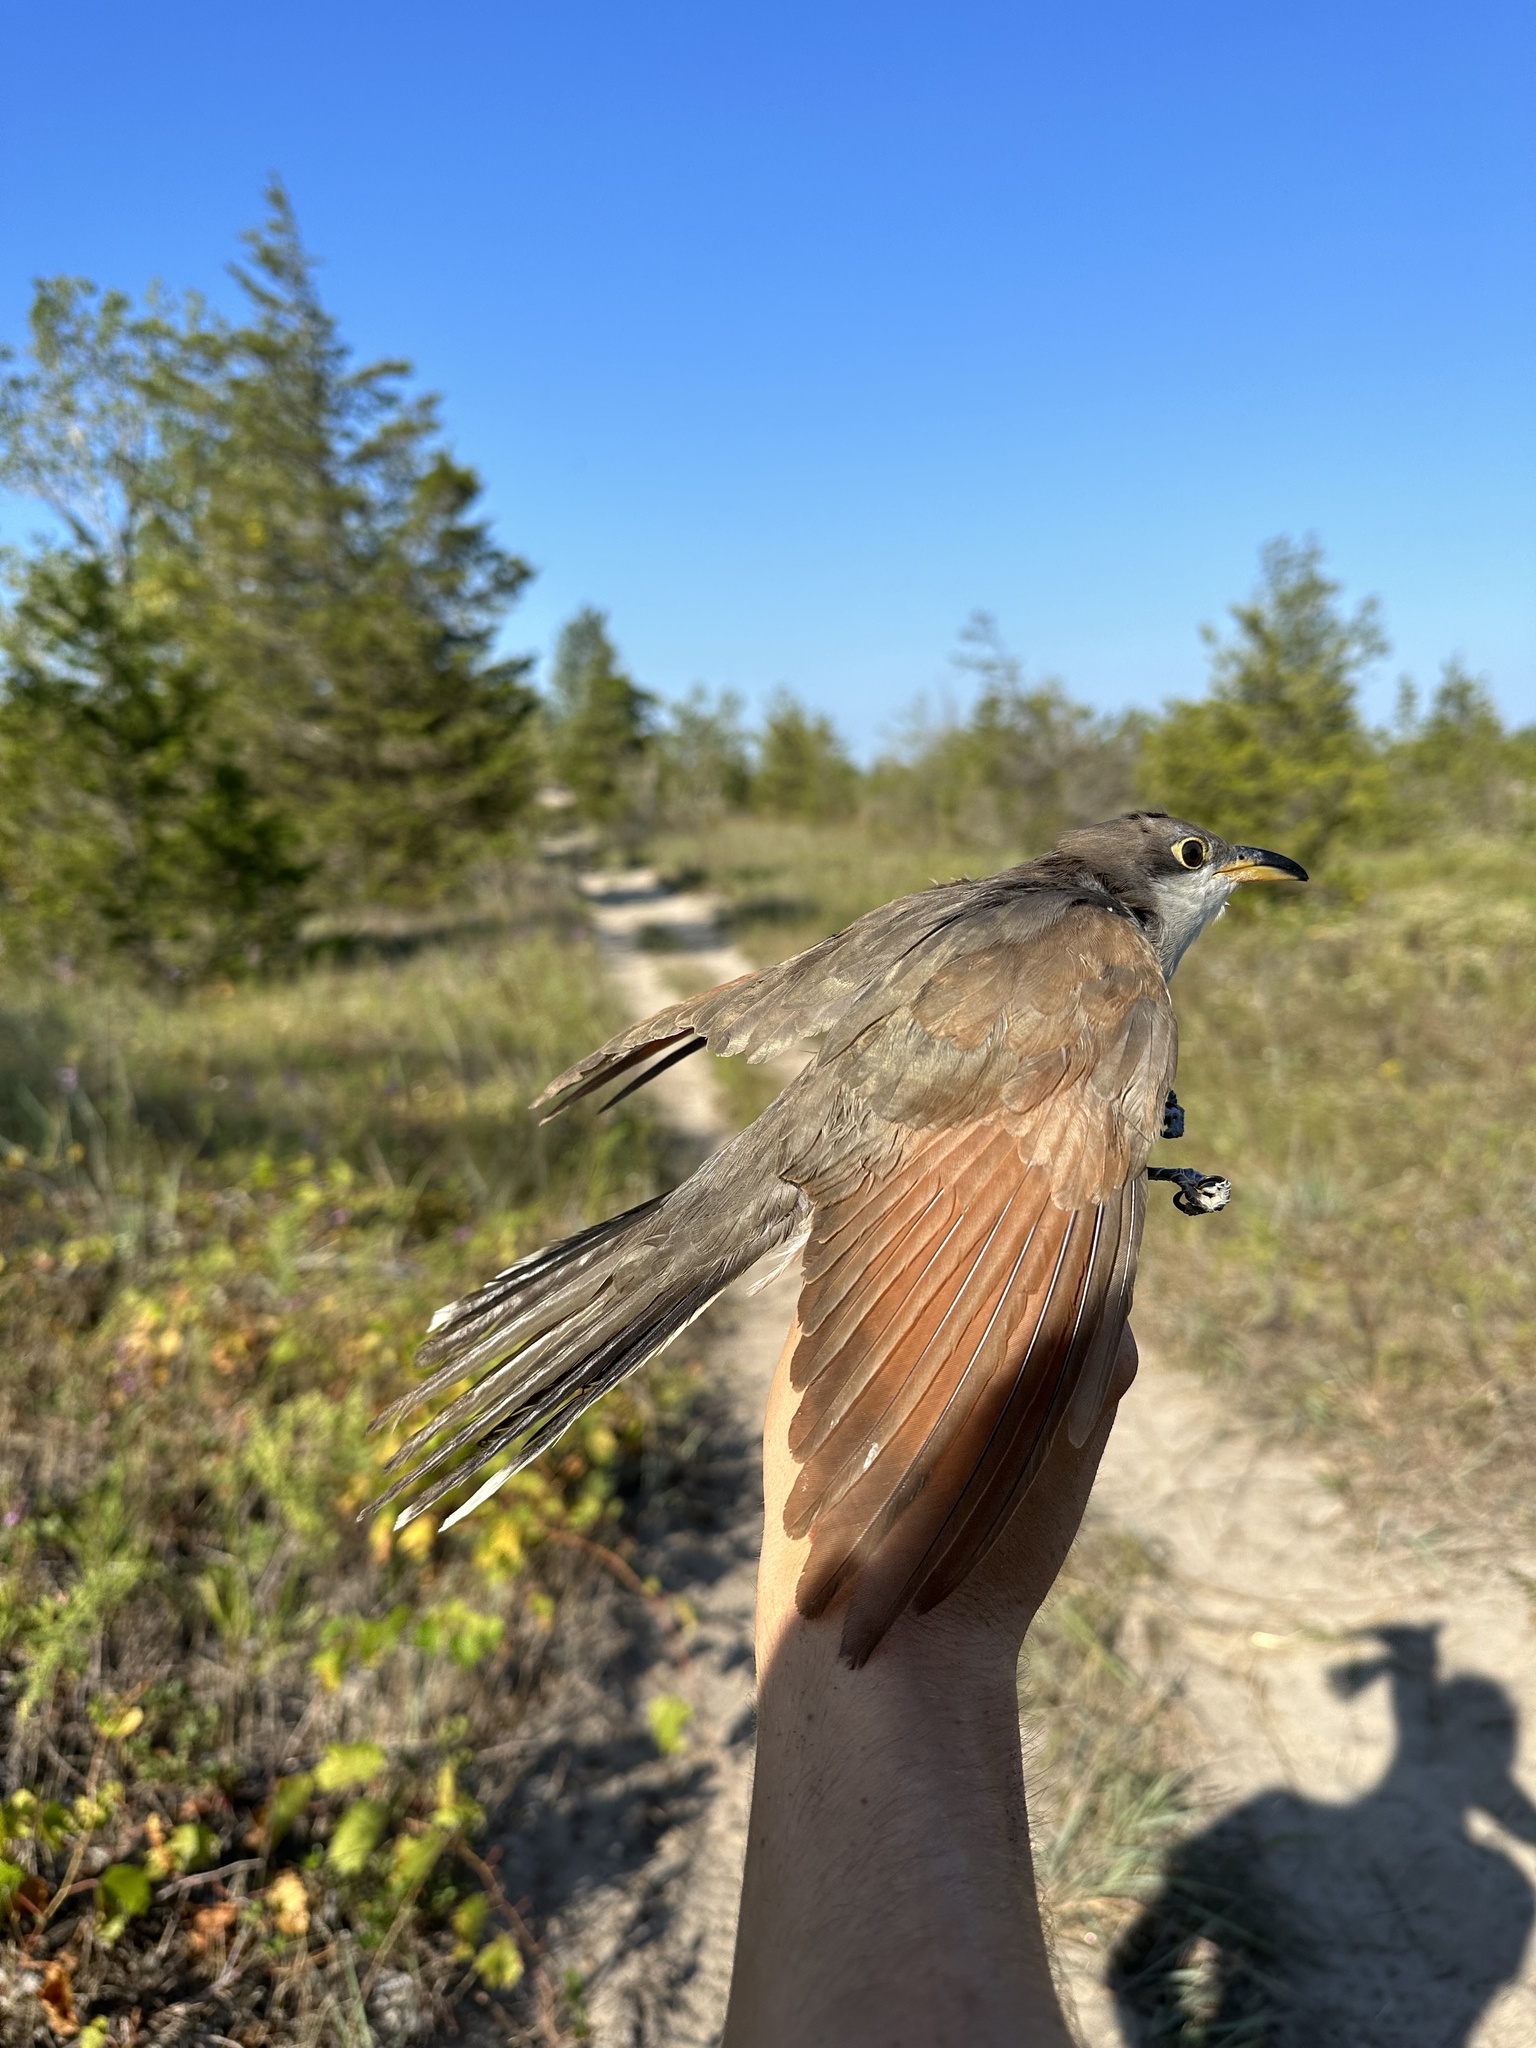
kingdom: Animalia
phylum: Chordata
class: Aves
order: Cuculiformes
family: Cuculidae
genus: Coccyzus
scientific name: Coccyzus americanus
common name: Yellow-billed cuckoo
